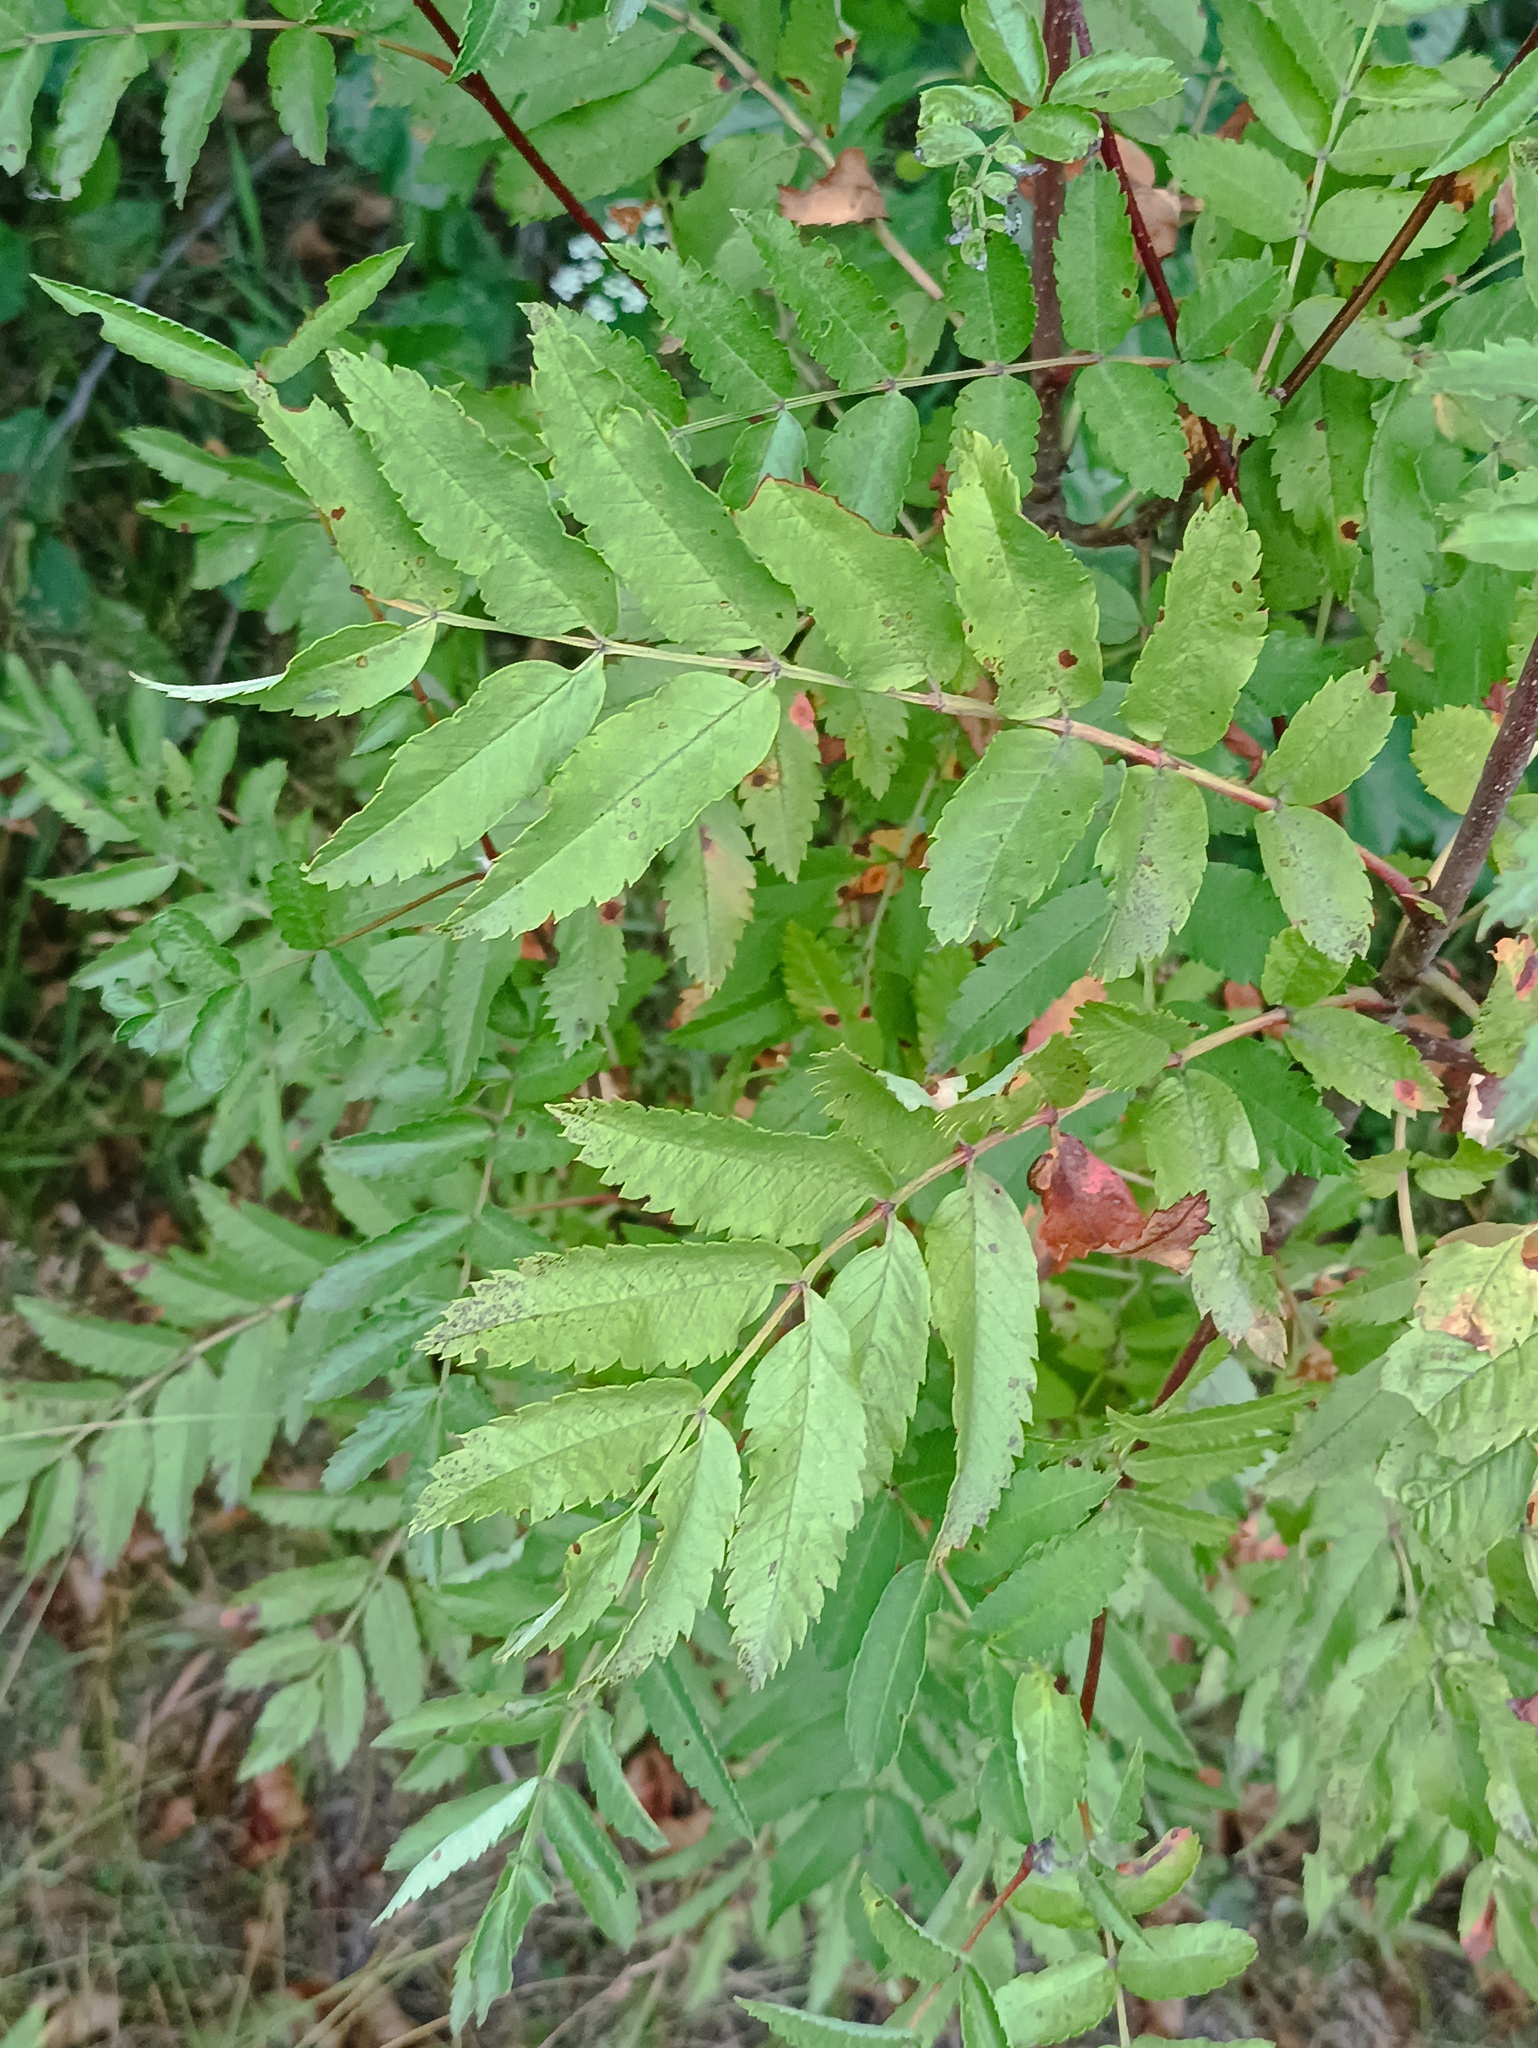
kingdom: Plantae
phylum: Tracheophyta
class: Magnoliopsida
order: Rosales
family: Rosaceae
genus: Sorbus
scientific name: Sorbus aucuparia
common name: Rowan
